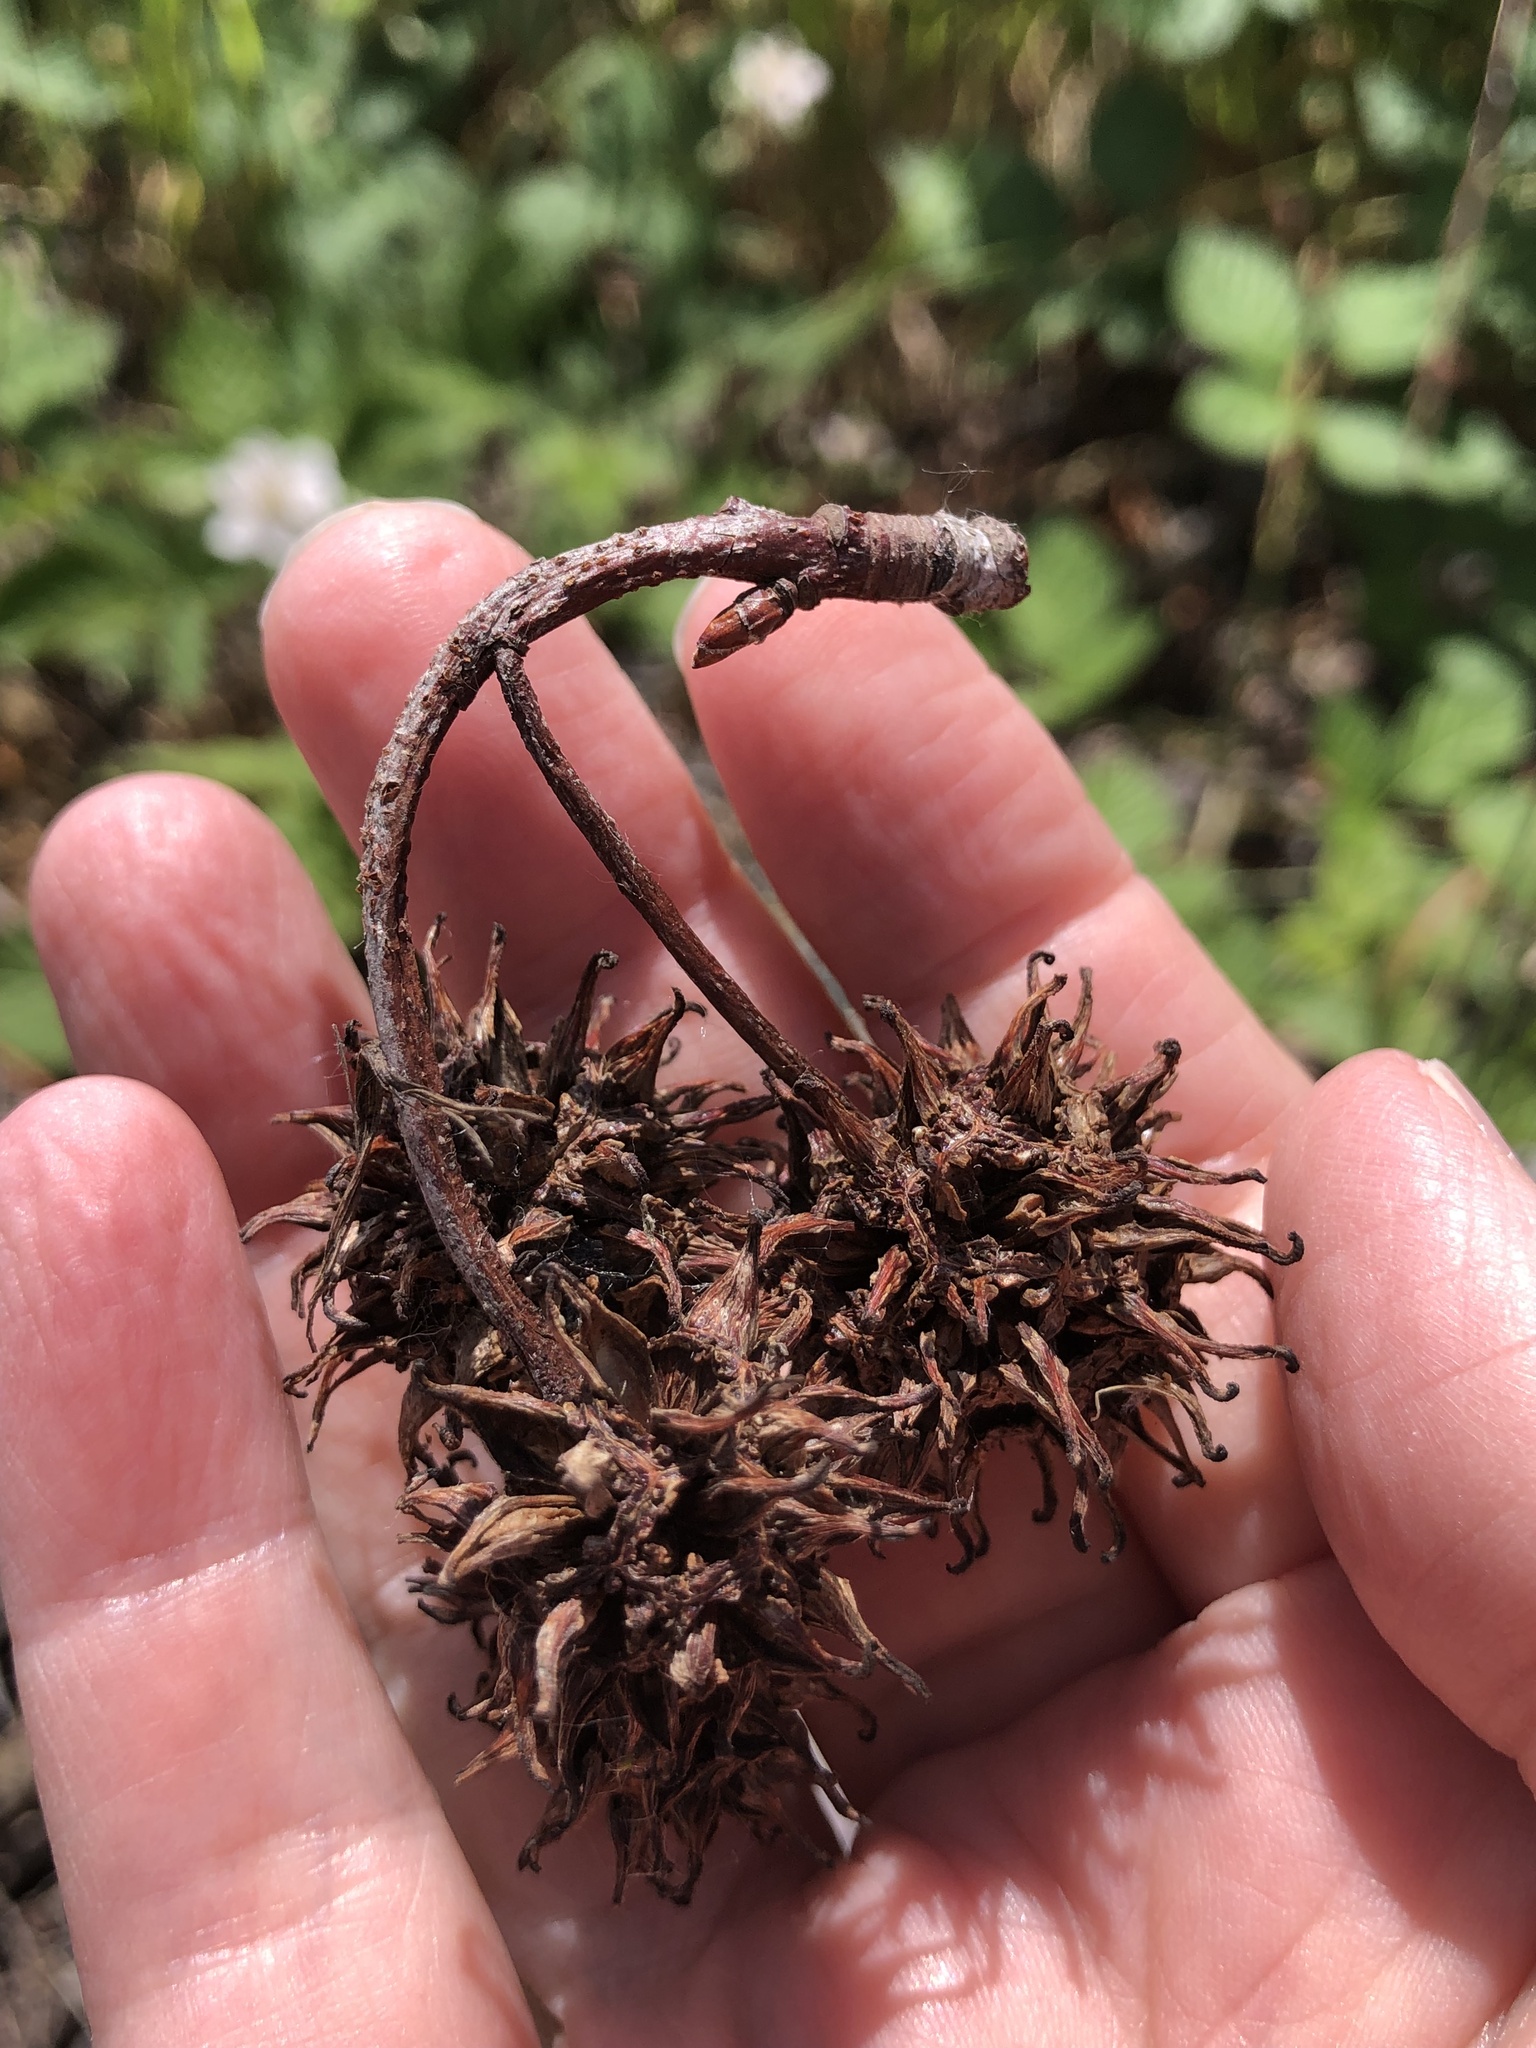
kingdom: Plantae
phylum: Tracheophyta
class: Magnoliopsida
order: Saxifragales
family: Altingiaceae
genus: Liquidambar
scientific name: Liquidambar styraciflua
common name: Sweet gum
